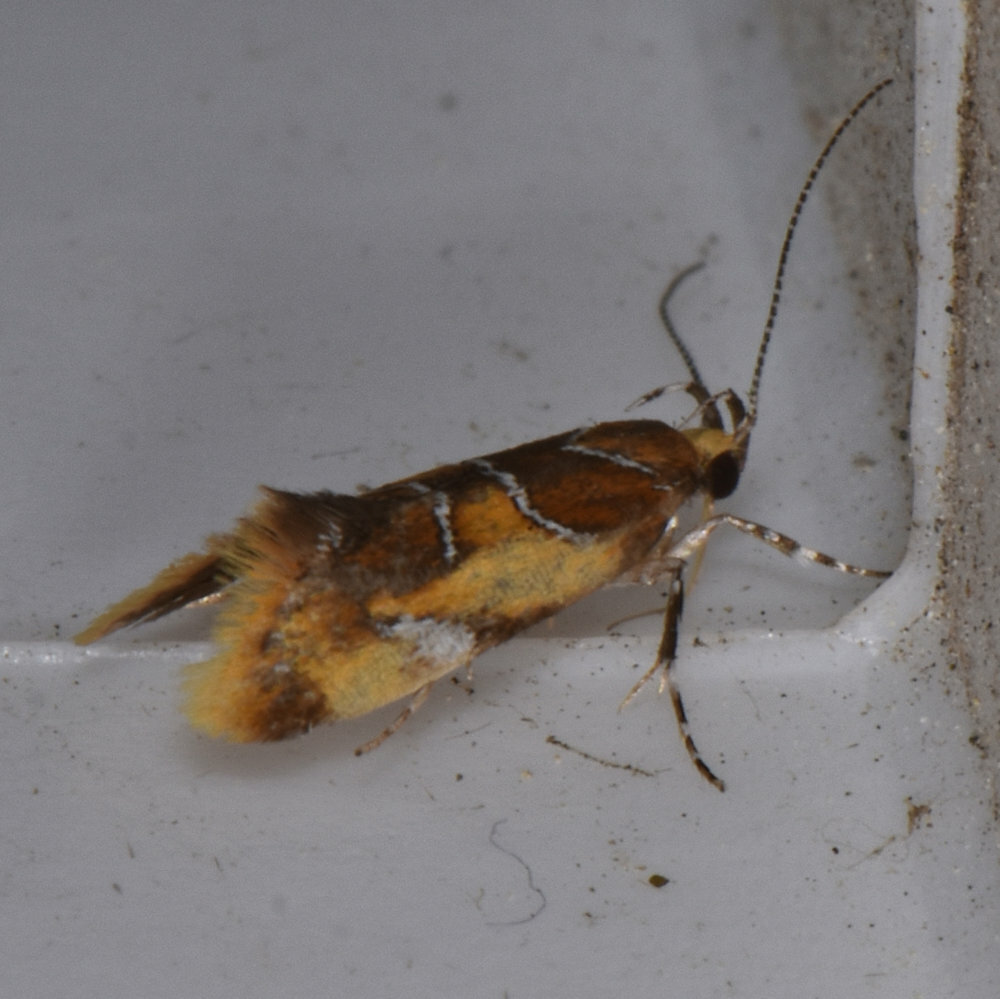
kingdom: Animalia
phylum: Arthropoda
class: Insecta
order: Lepidoptera
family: Oecophoridae
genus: Callima
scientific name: Callima argenticinctella
